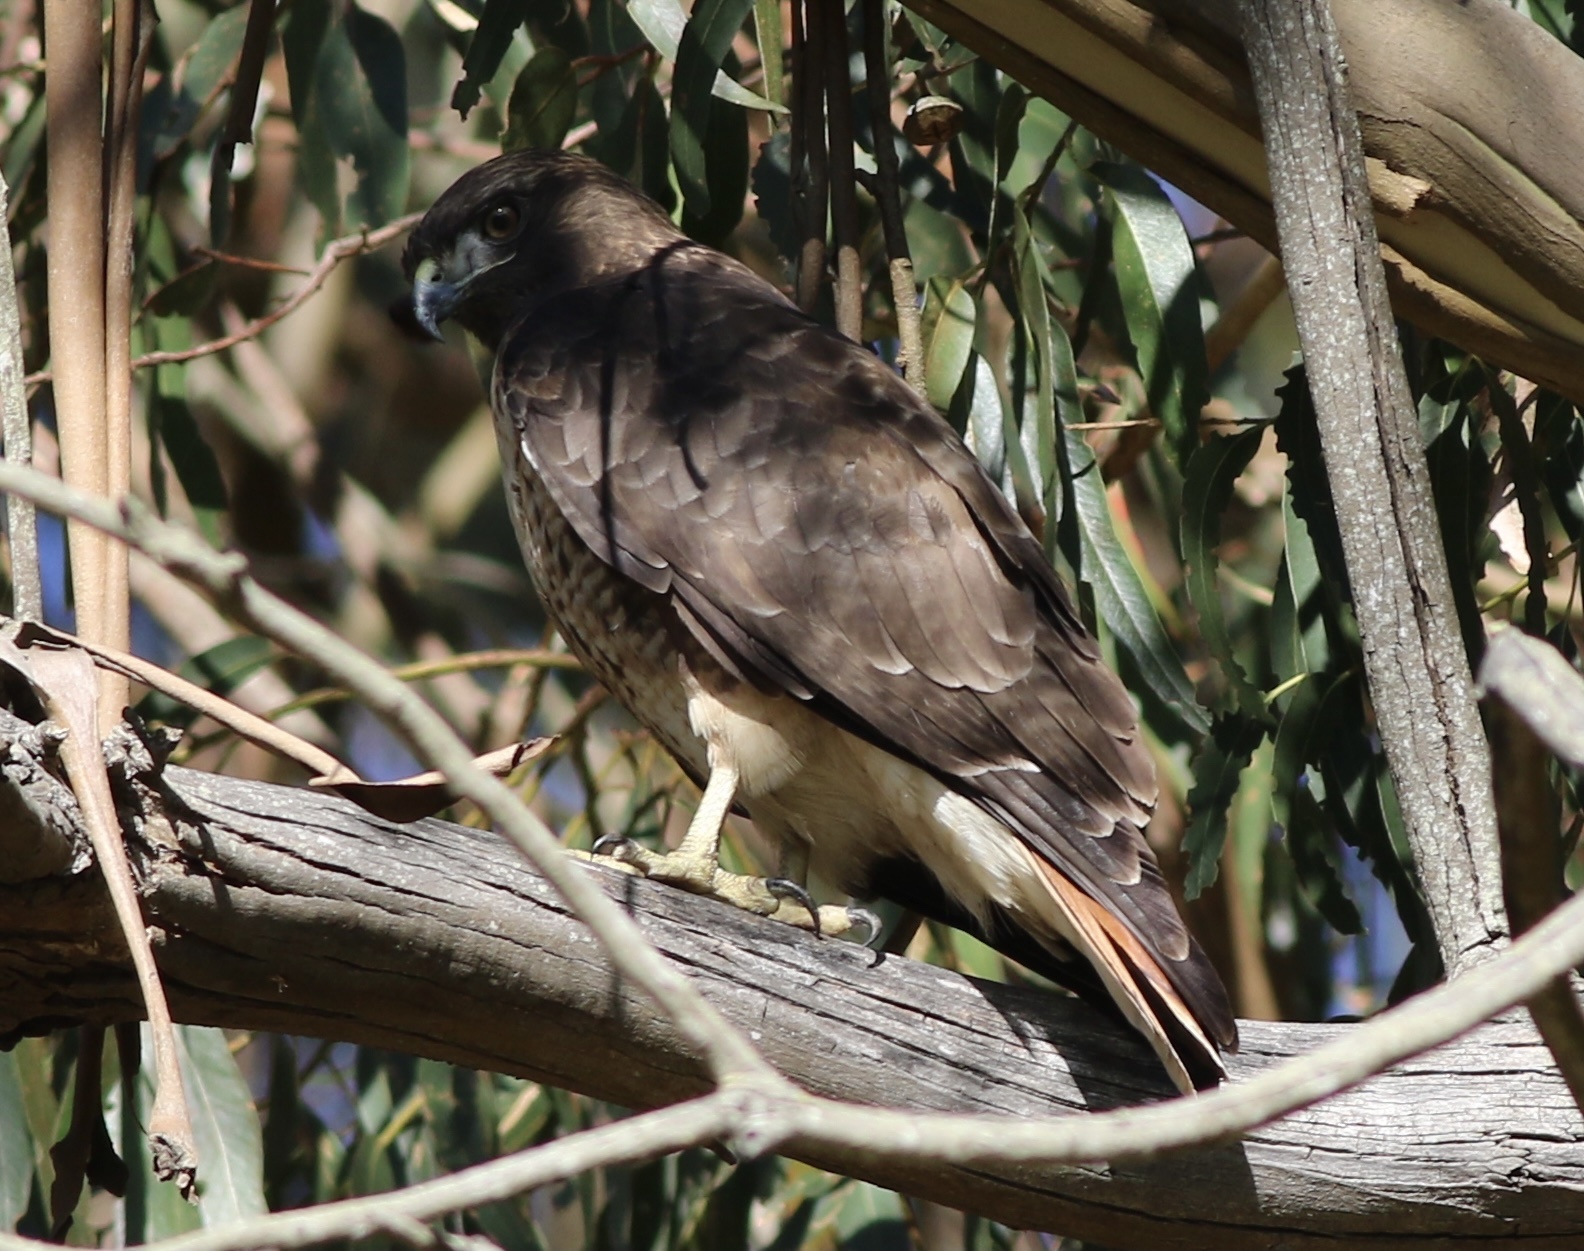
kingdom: Animalia
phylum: Chordata
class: Aves
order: Accipitriformes
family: Accipitridae
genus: Buteo
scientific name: Buteo jamaicensis
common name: Red-tailed hawk
